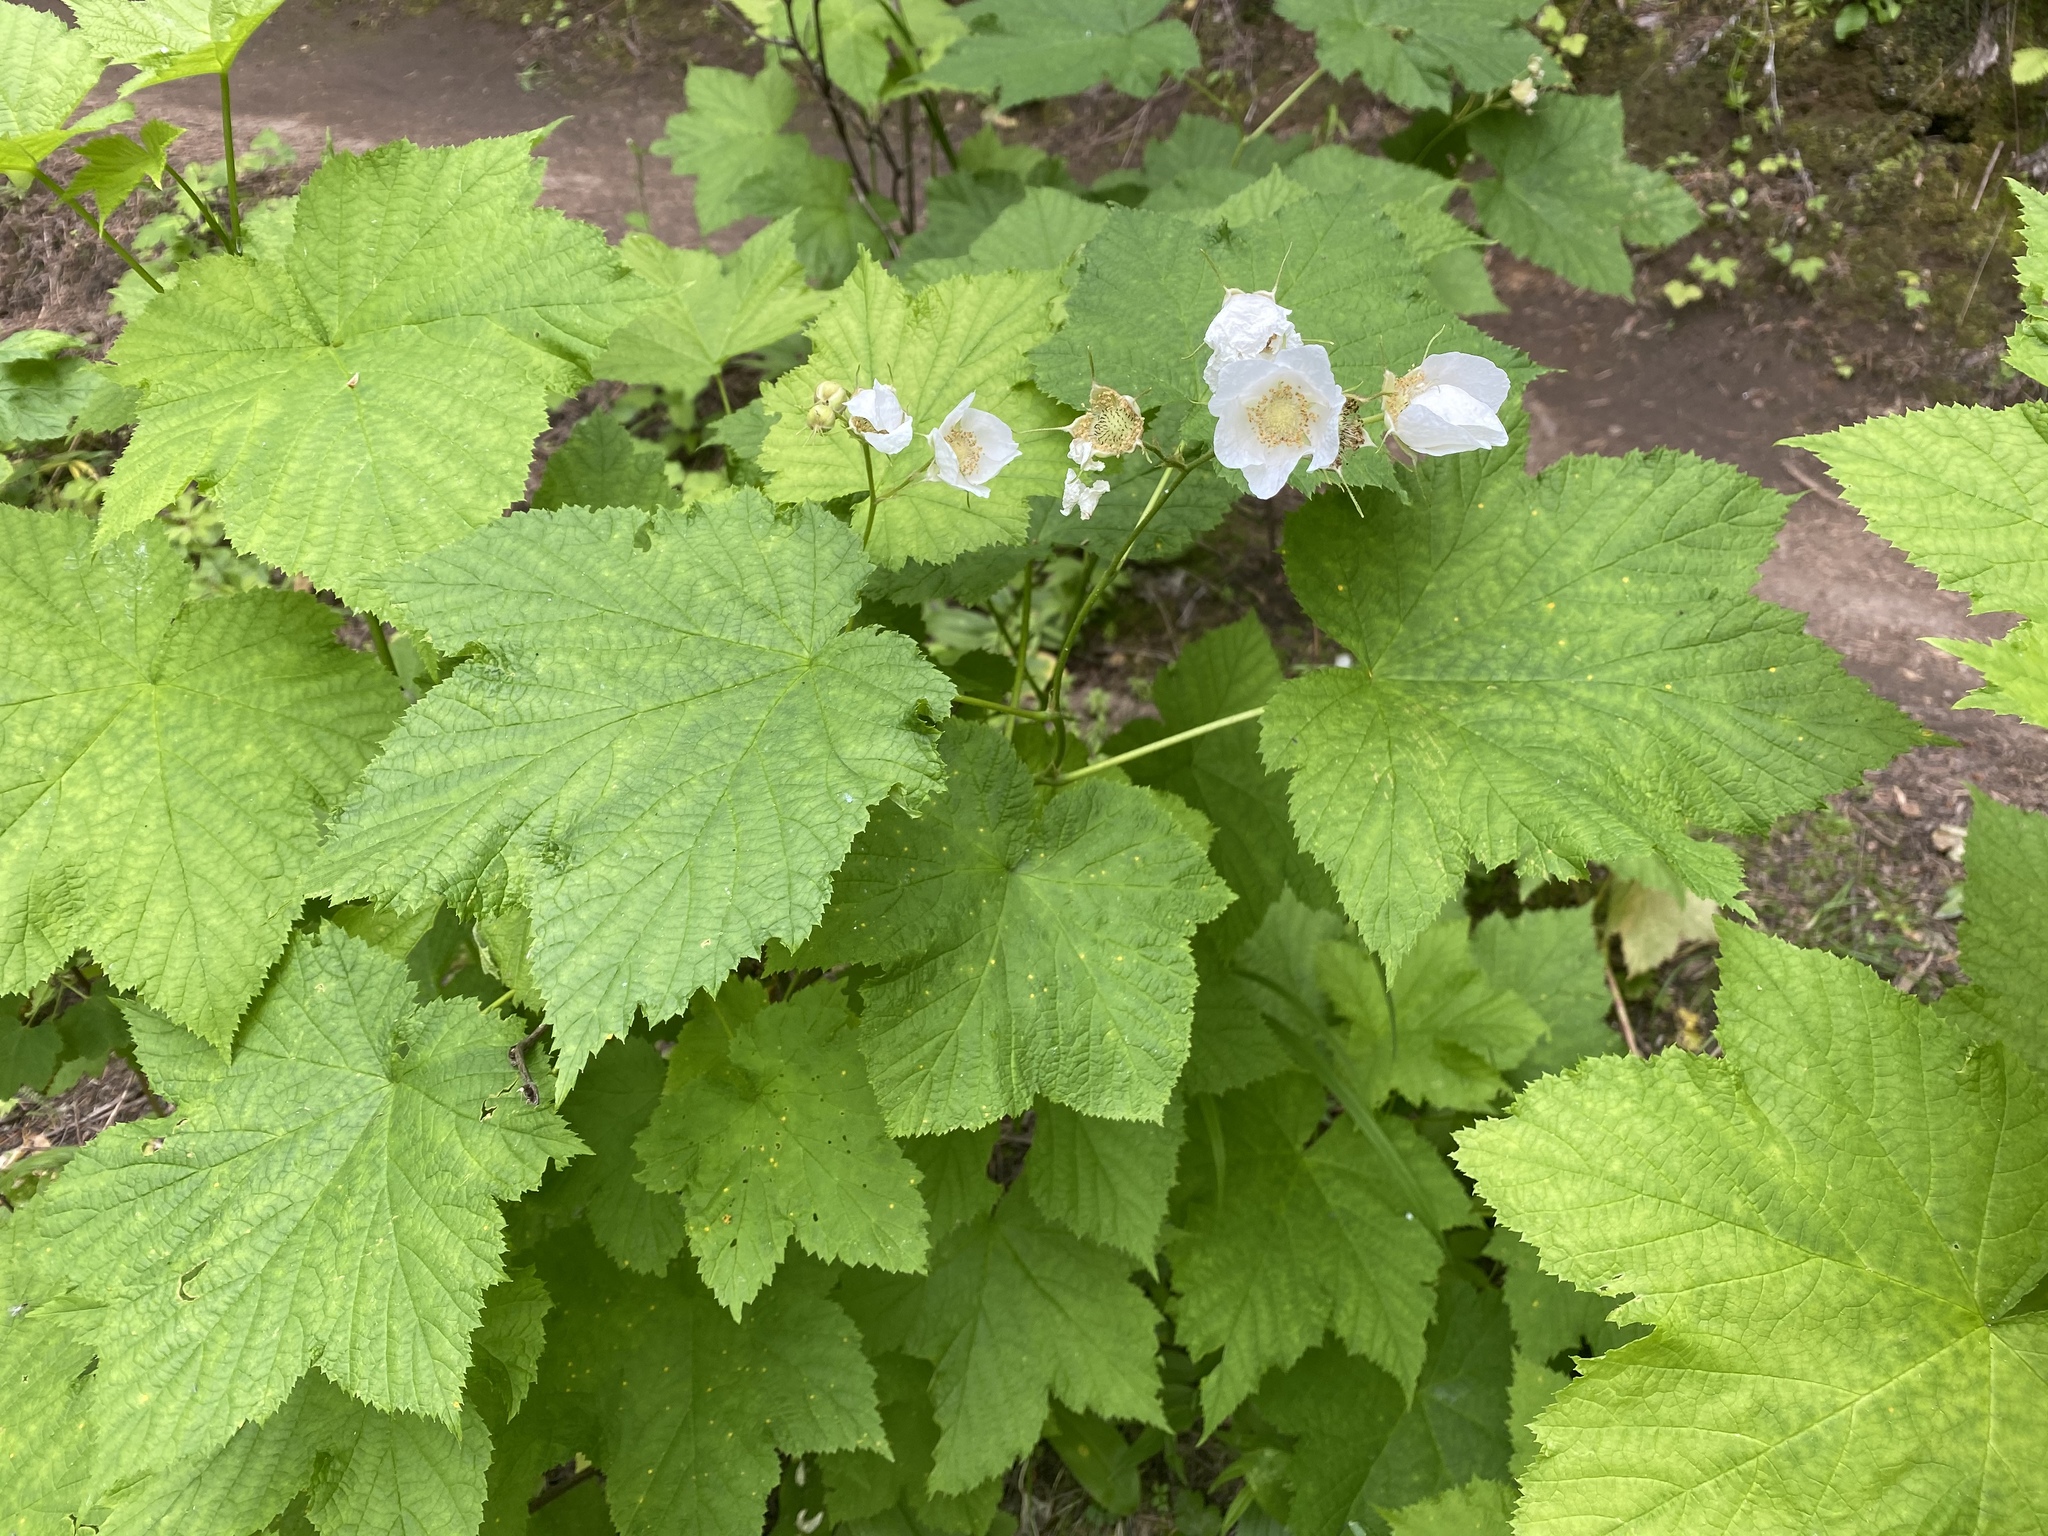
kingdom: Plantae
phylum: Tracheophyta
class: Magnoliopsida
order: Rosales
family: Rosaceae
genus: Rubus
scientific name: Rubus parviflorus
